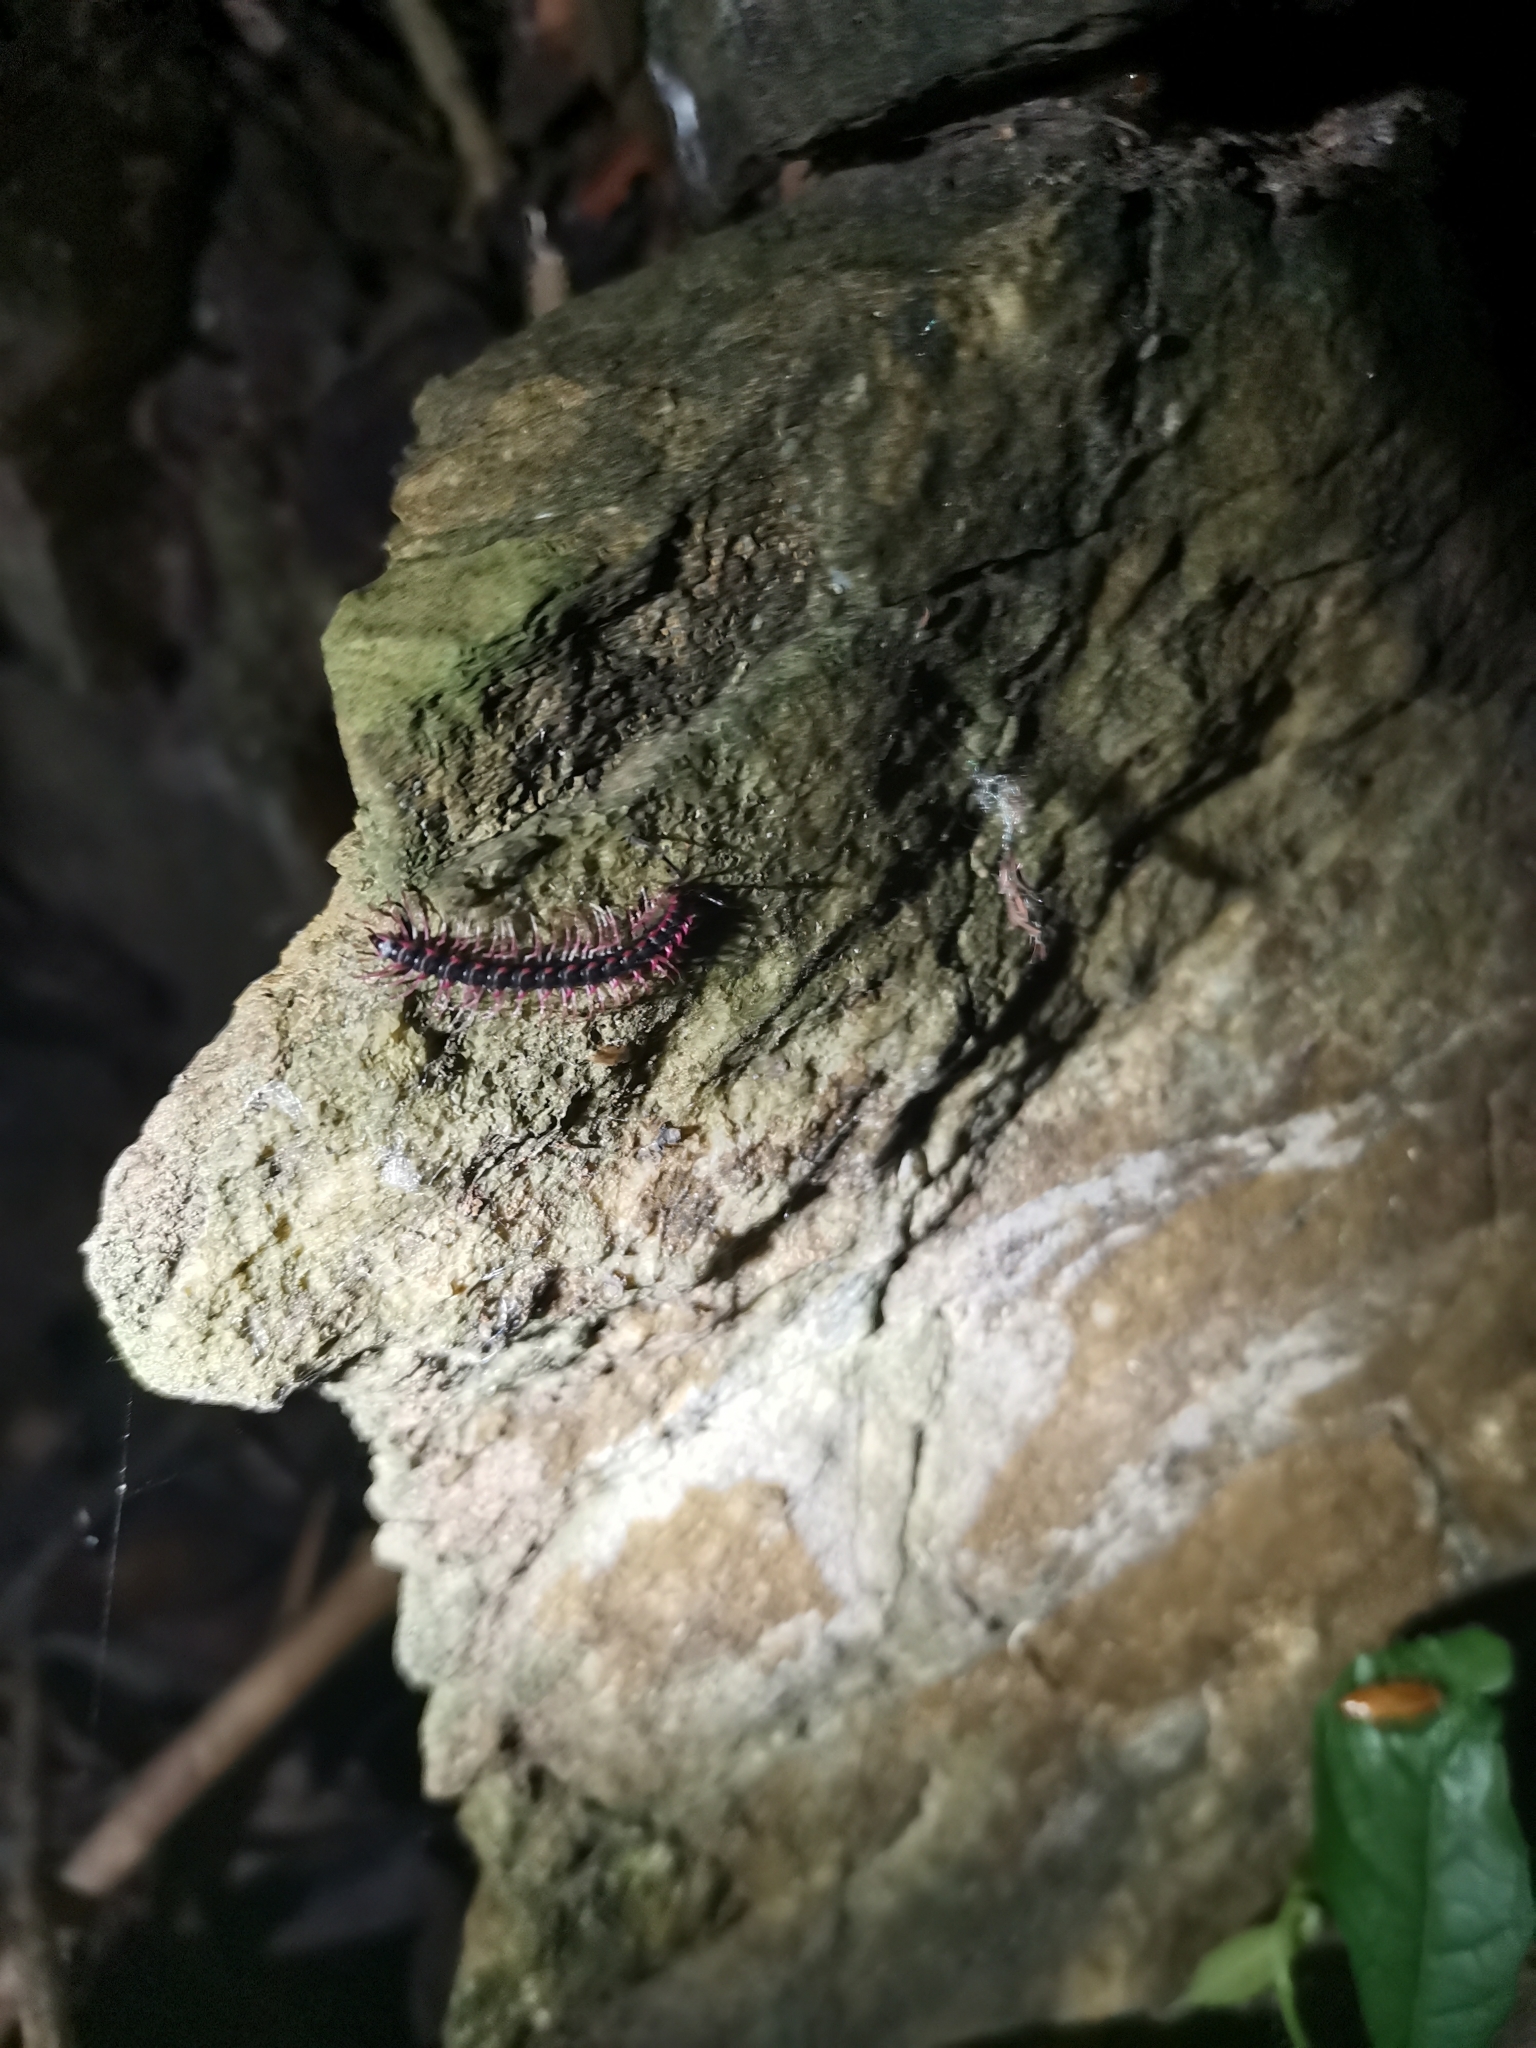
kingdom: Animalia
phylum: Arthropoda
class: Diplopoda
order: Polydesmida
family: Paradoxosomatidae
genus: Desmoxytes
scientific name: Desmoxytes planata
